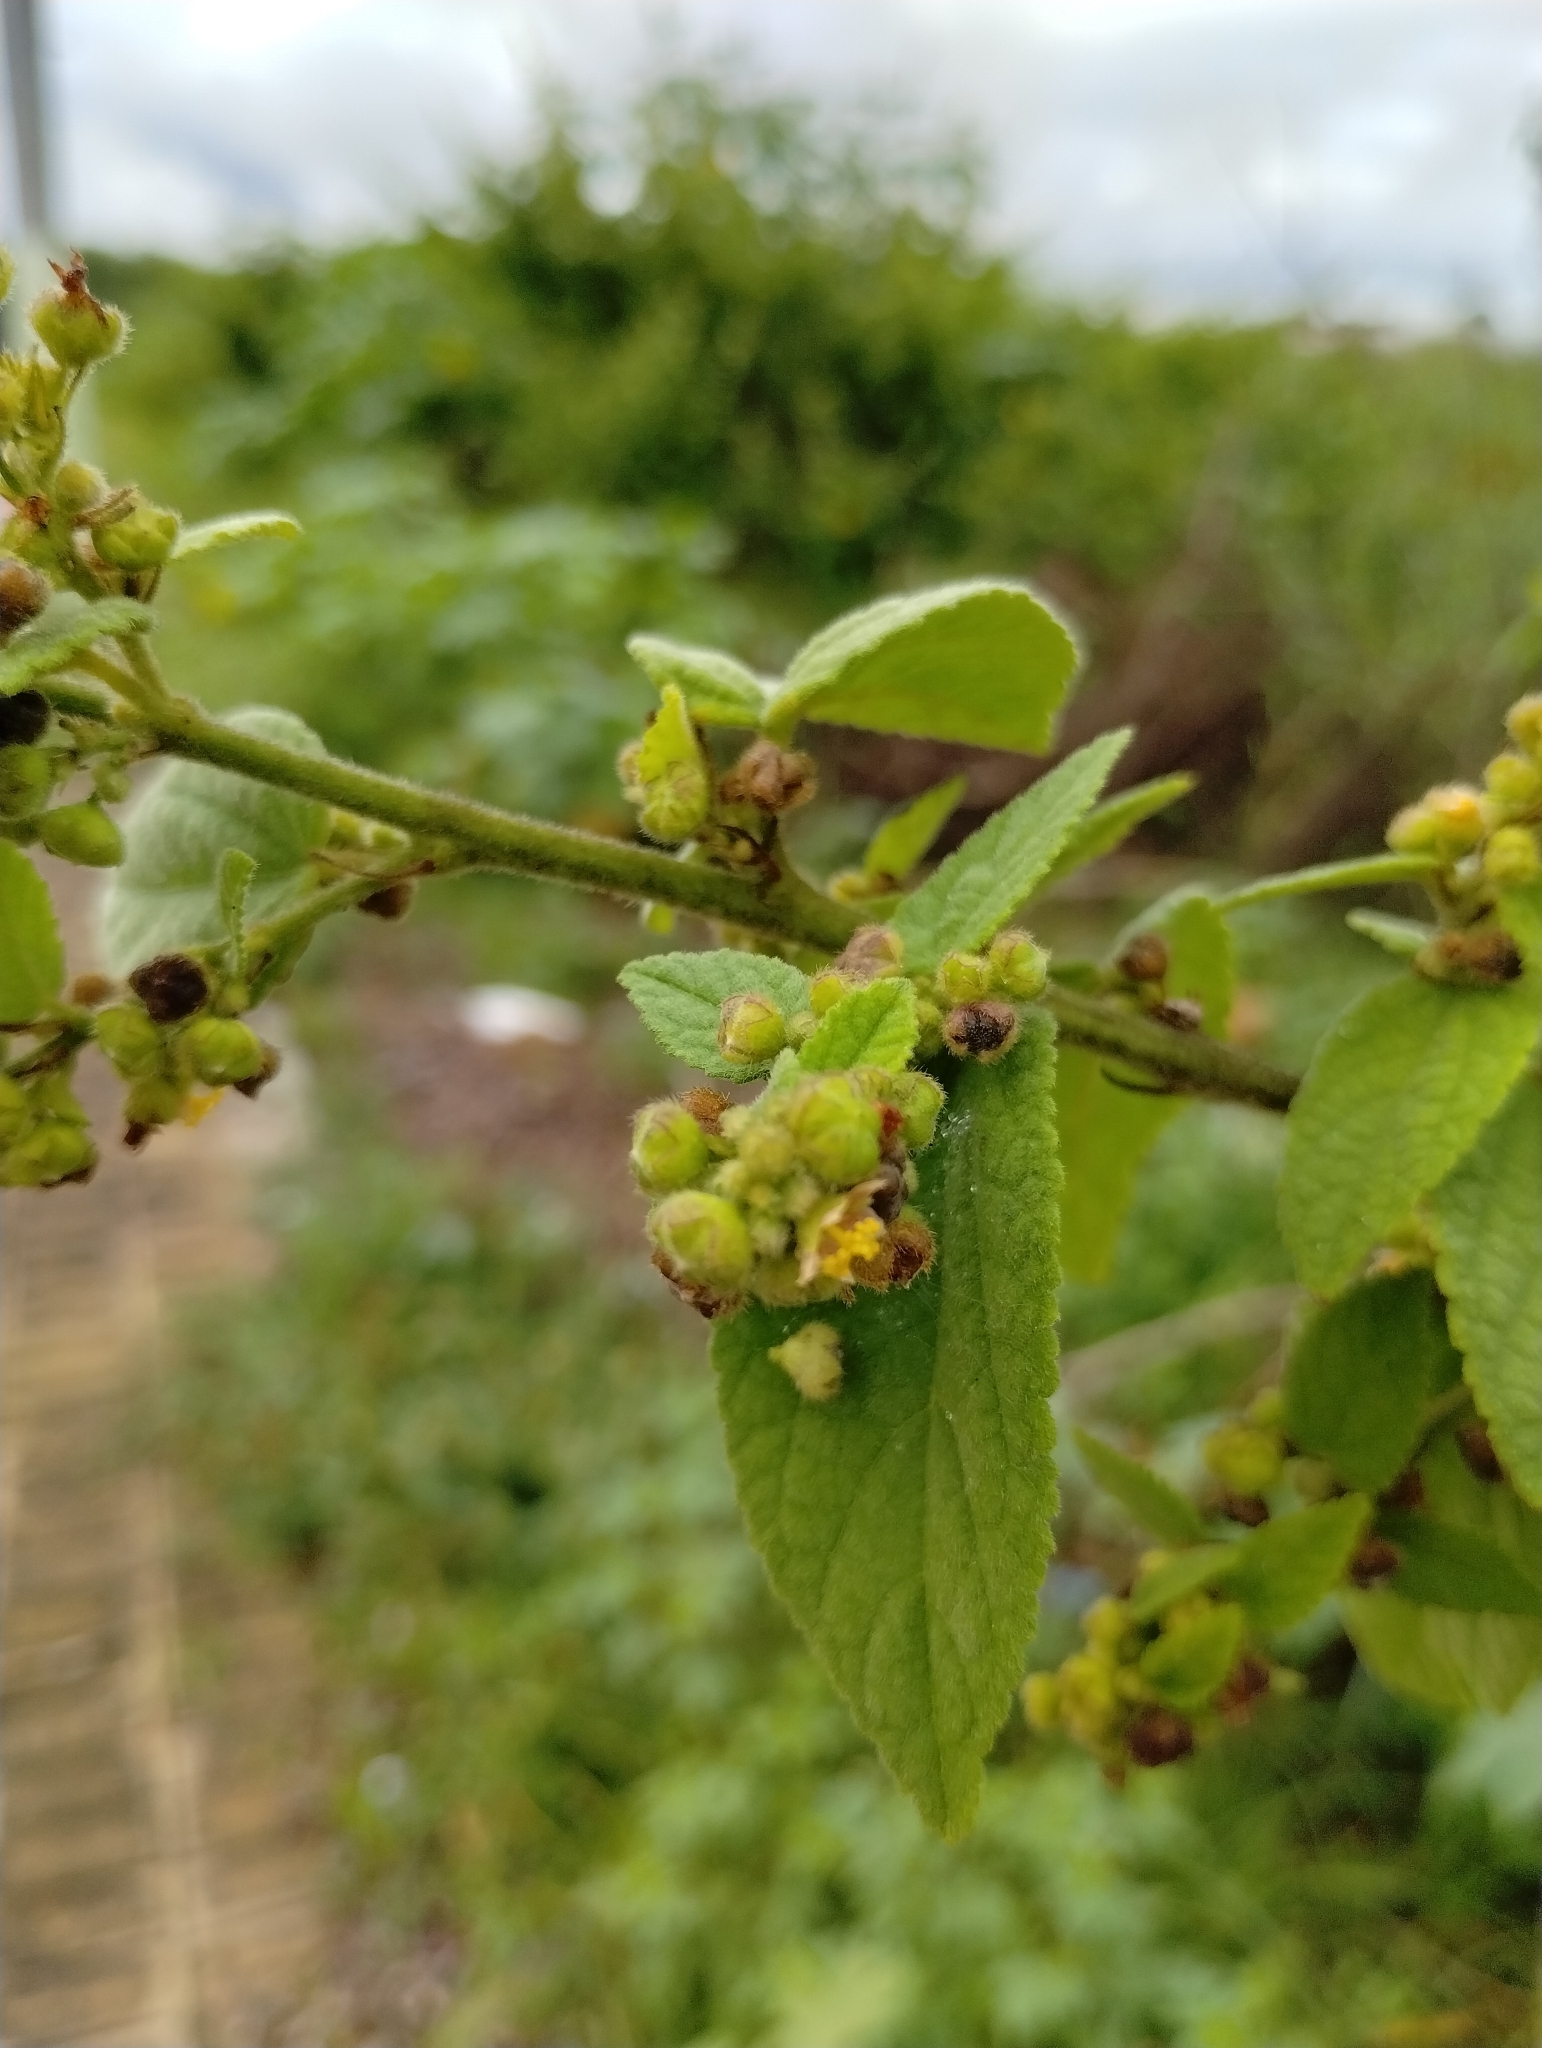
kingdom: Plantae
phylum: Tracheophyta
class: Magnoliopsida
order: Malvales
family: Malvaceae
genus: Sidastrum
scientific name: Sidastrum micranthum
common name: Dainty sandmallow
